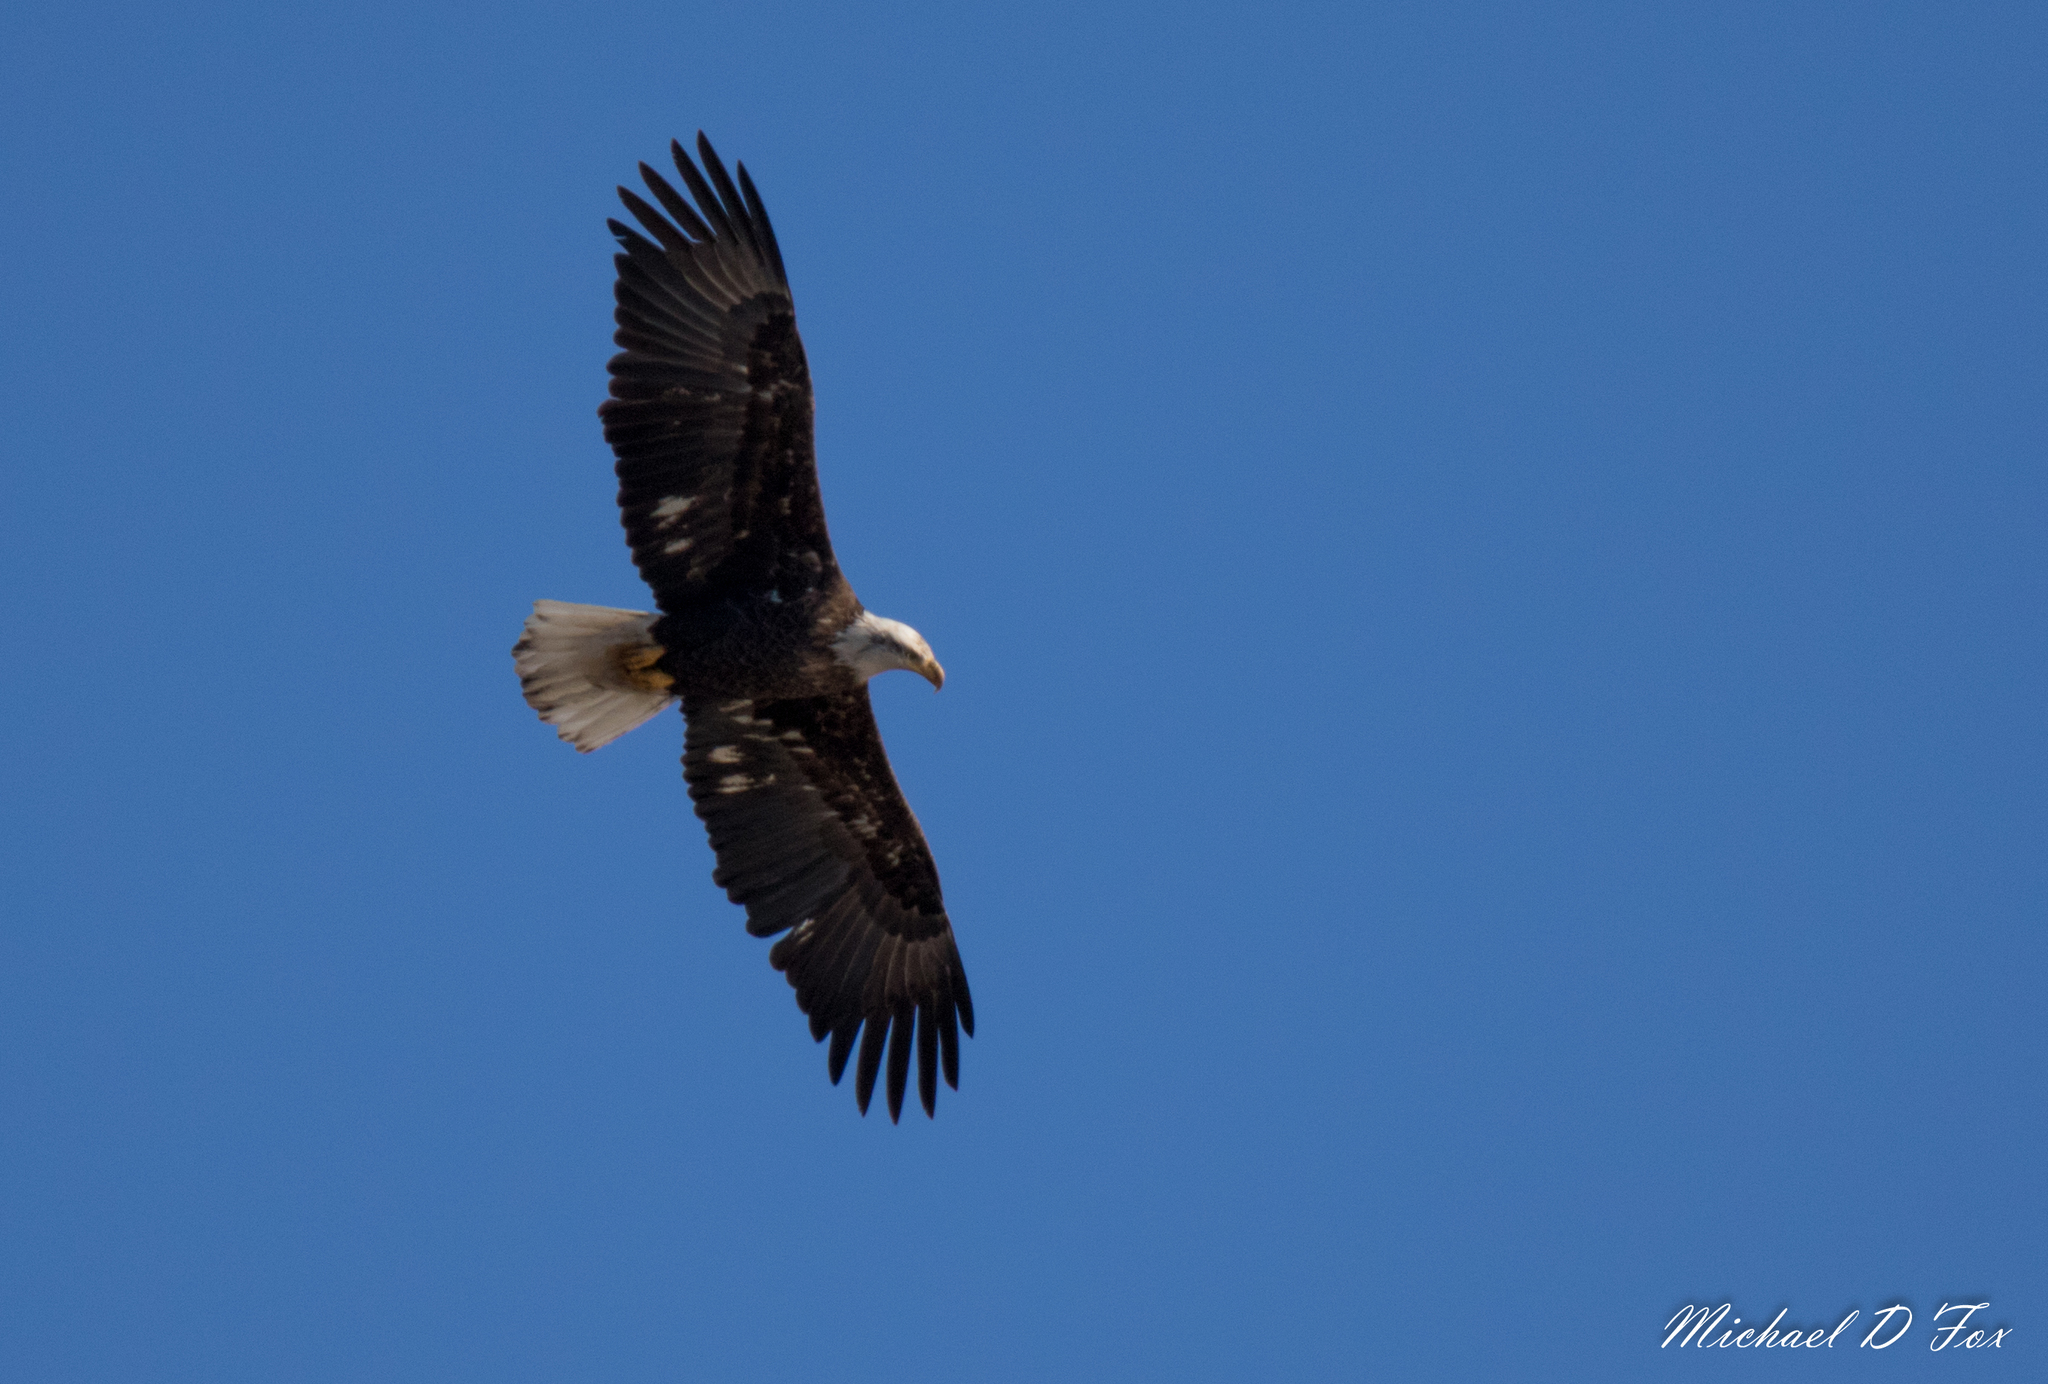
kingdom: Animalia
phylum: Chordata
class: Aves
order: Accipitriformes
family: Accipitridae
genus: Haliaeetus
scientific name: Haliaeetus leucocephalus
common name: Bald eagle
